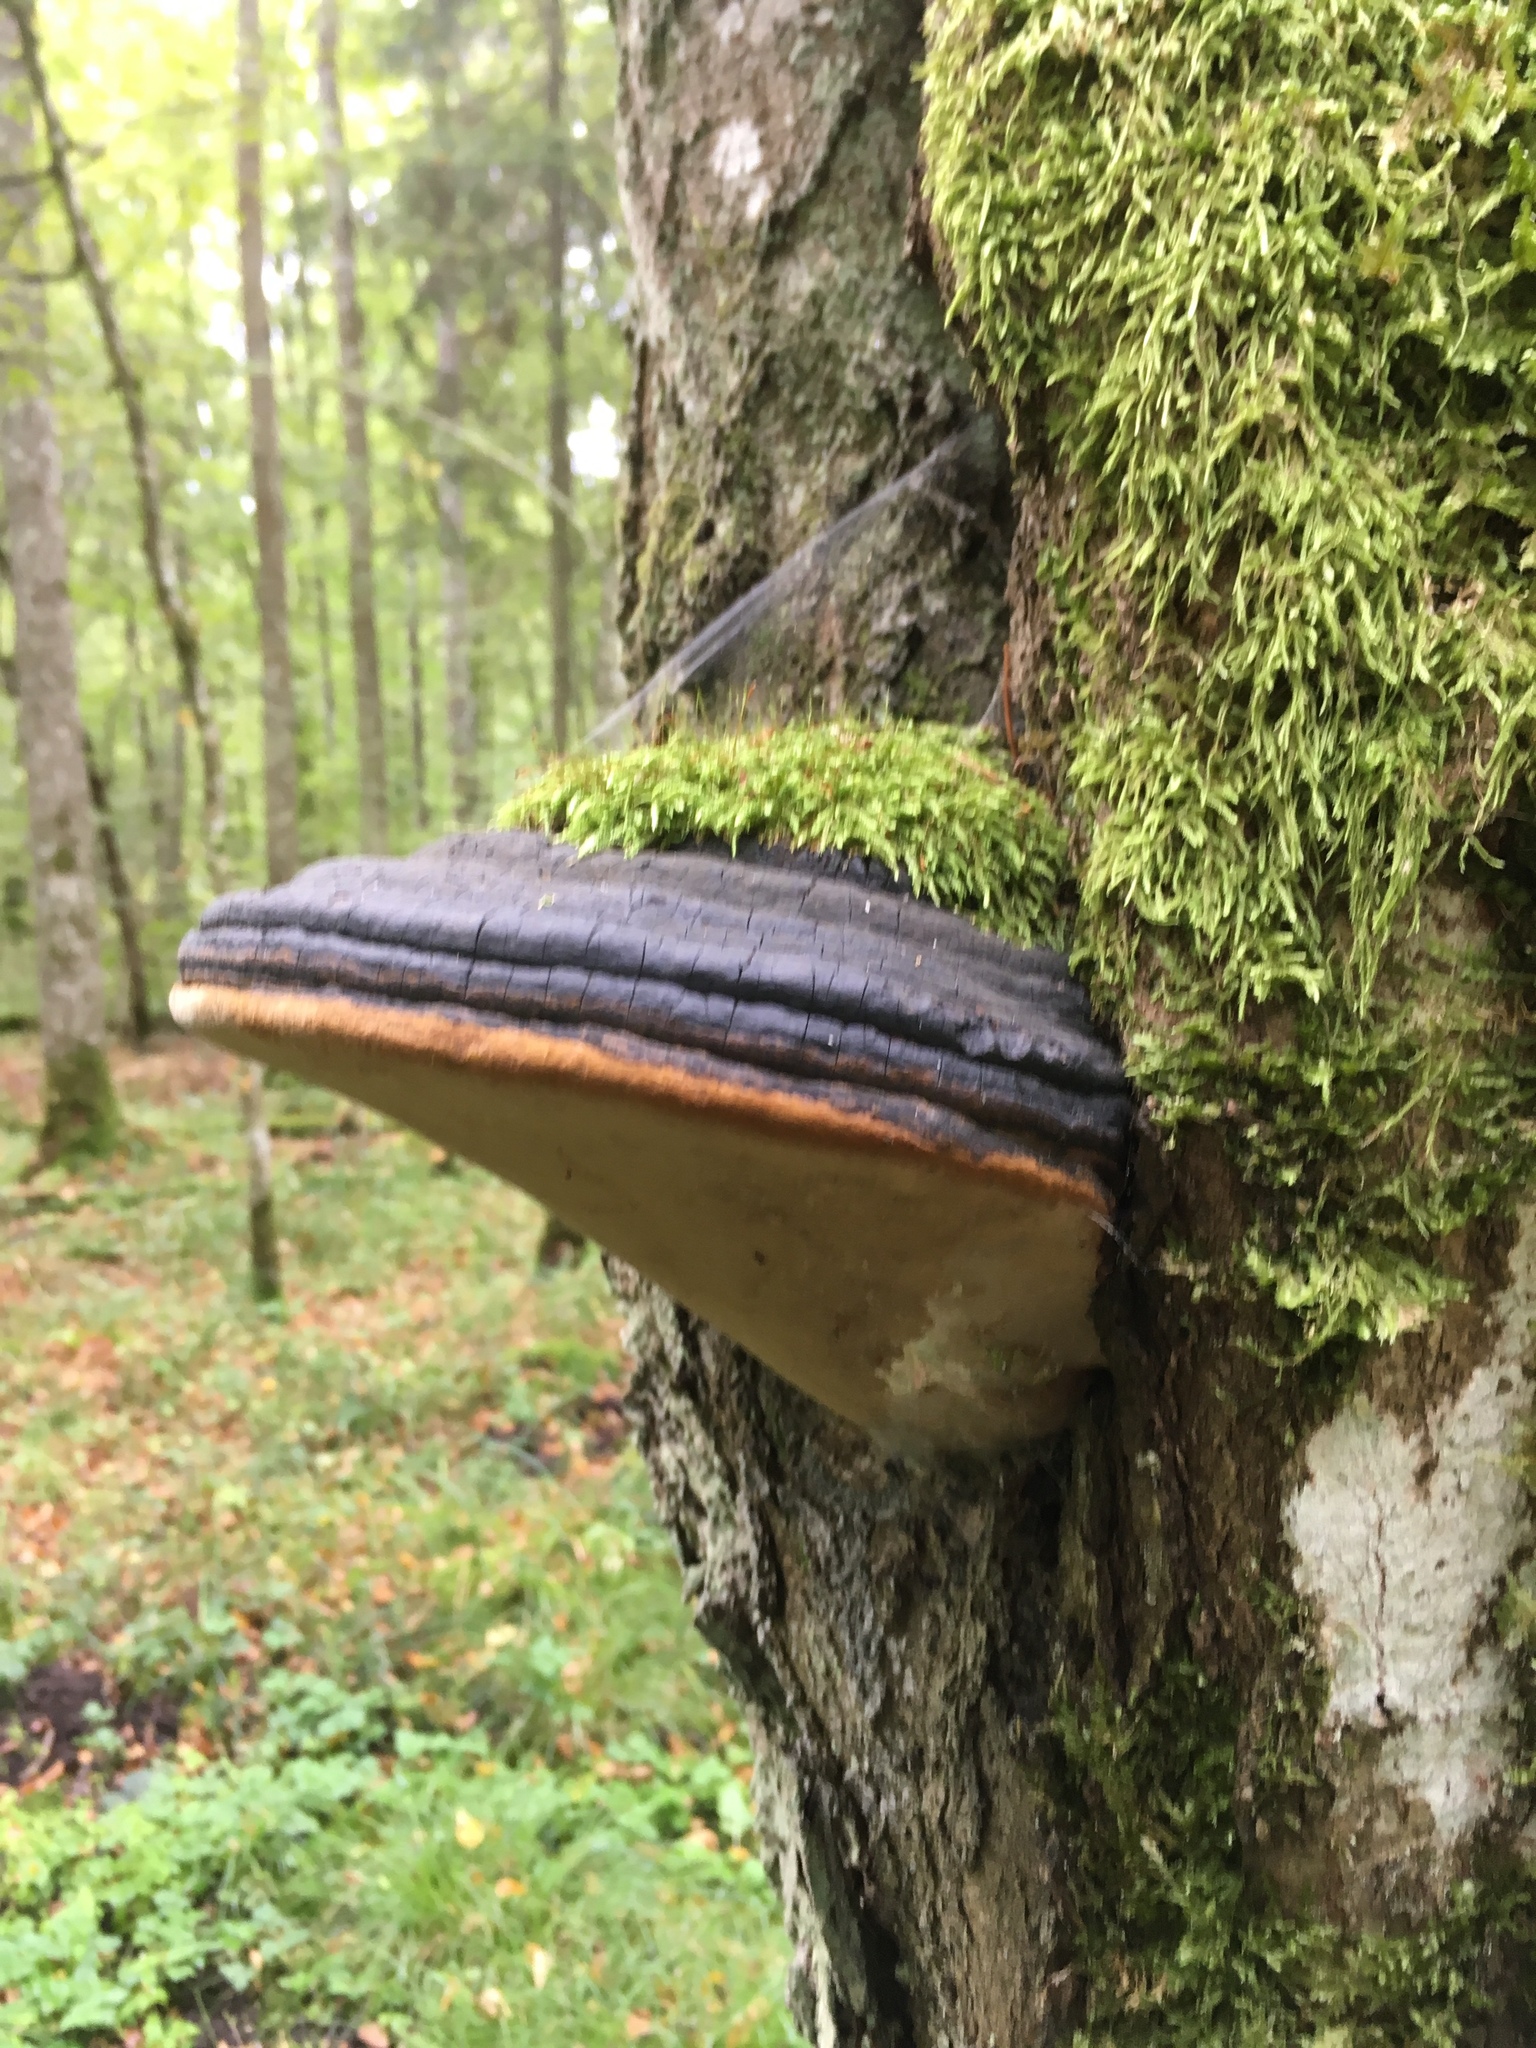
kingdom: Fungi
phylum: Basidiomycota
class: Agaricomycetes
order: Hymenochaetales
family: Hymenochaetaceae
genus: Phellinus
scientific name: Phellinus igniarius
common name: Willow bracket
